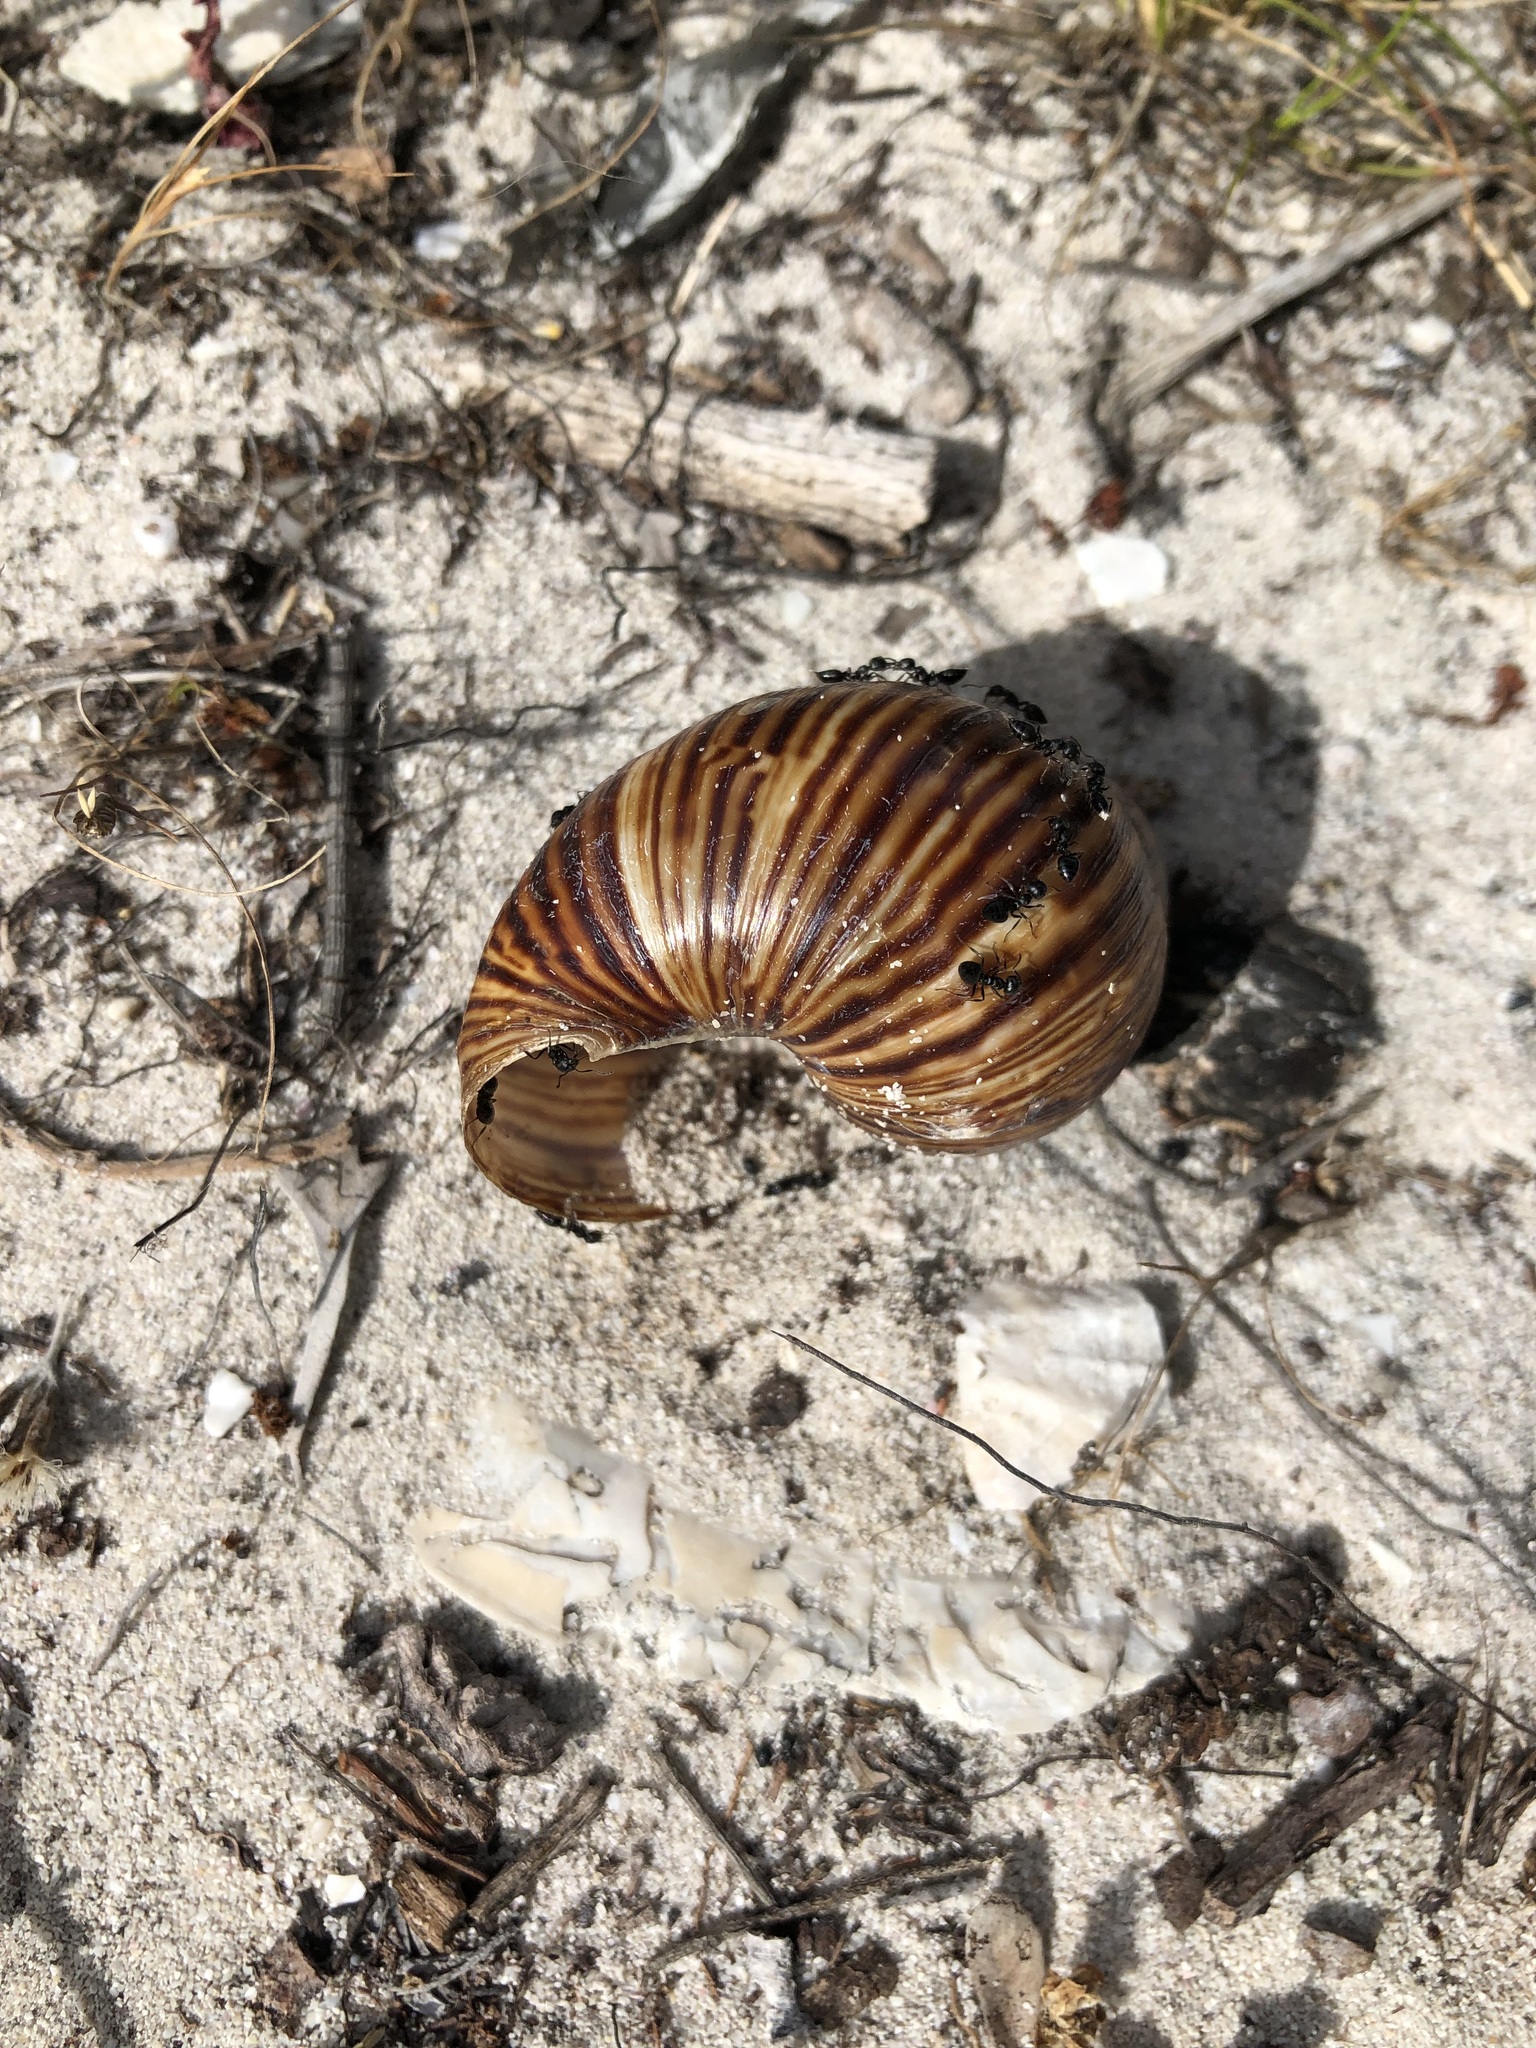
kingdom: Animalia
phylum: Mollusca
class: Gastropoda
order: Stylommatophora
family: Achatinidae
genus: Cochlitoma
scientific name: Cochlitoma zebra
